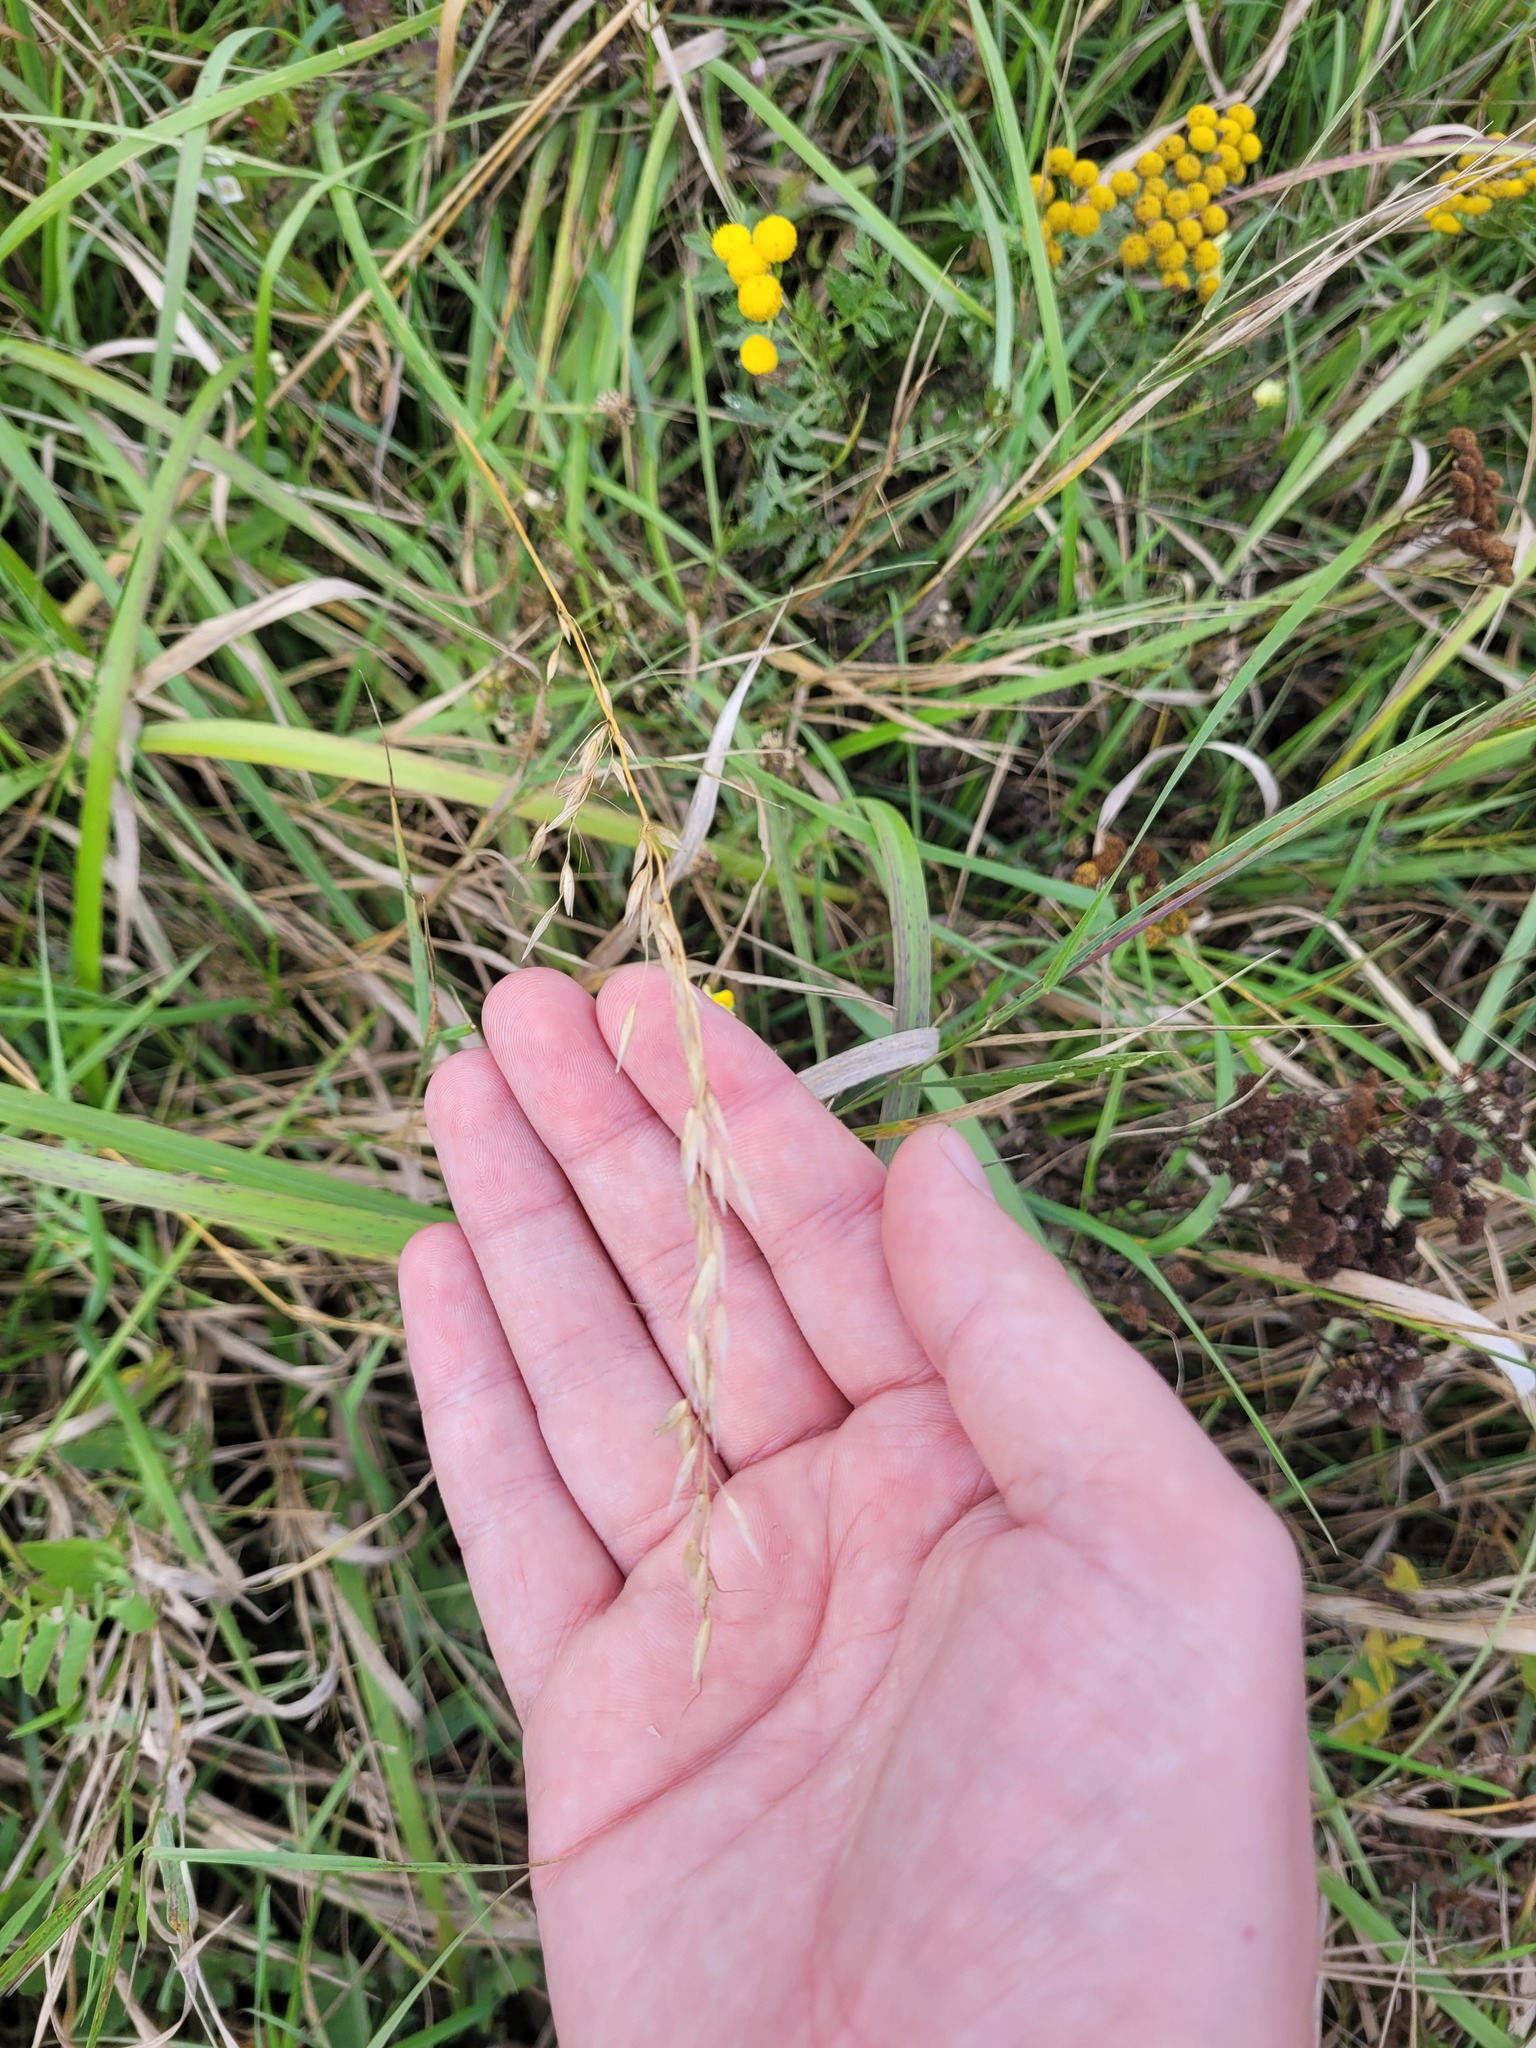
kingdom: Plantae
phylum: Tracheophyta
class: Liliopsida
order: Poales
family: Poaceae
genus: Arrhenatherum
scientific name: Arrhenatherum elatius
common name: Tall oatgrass
